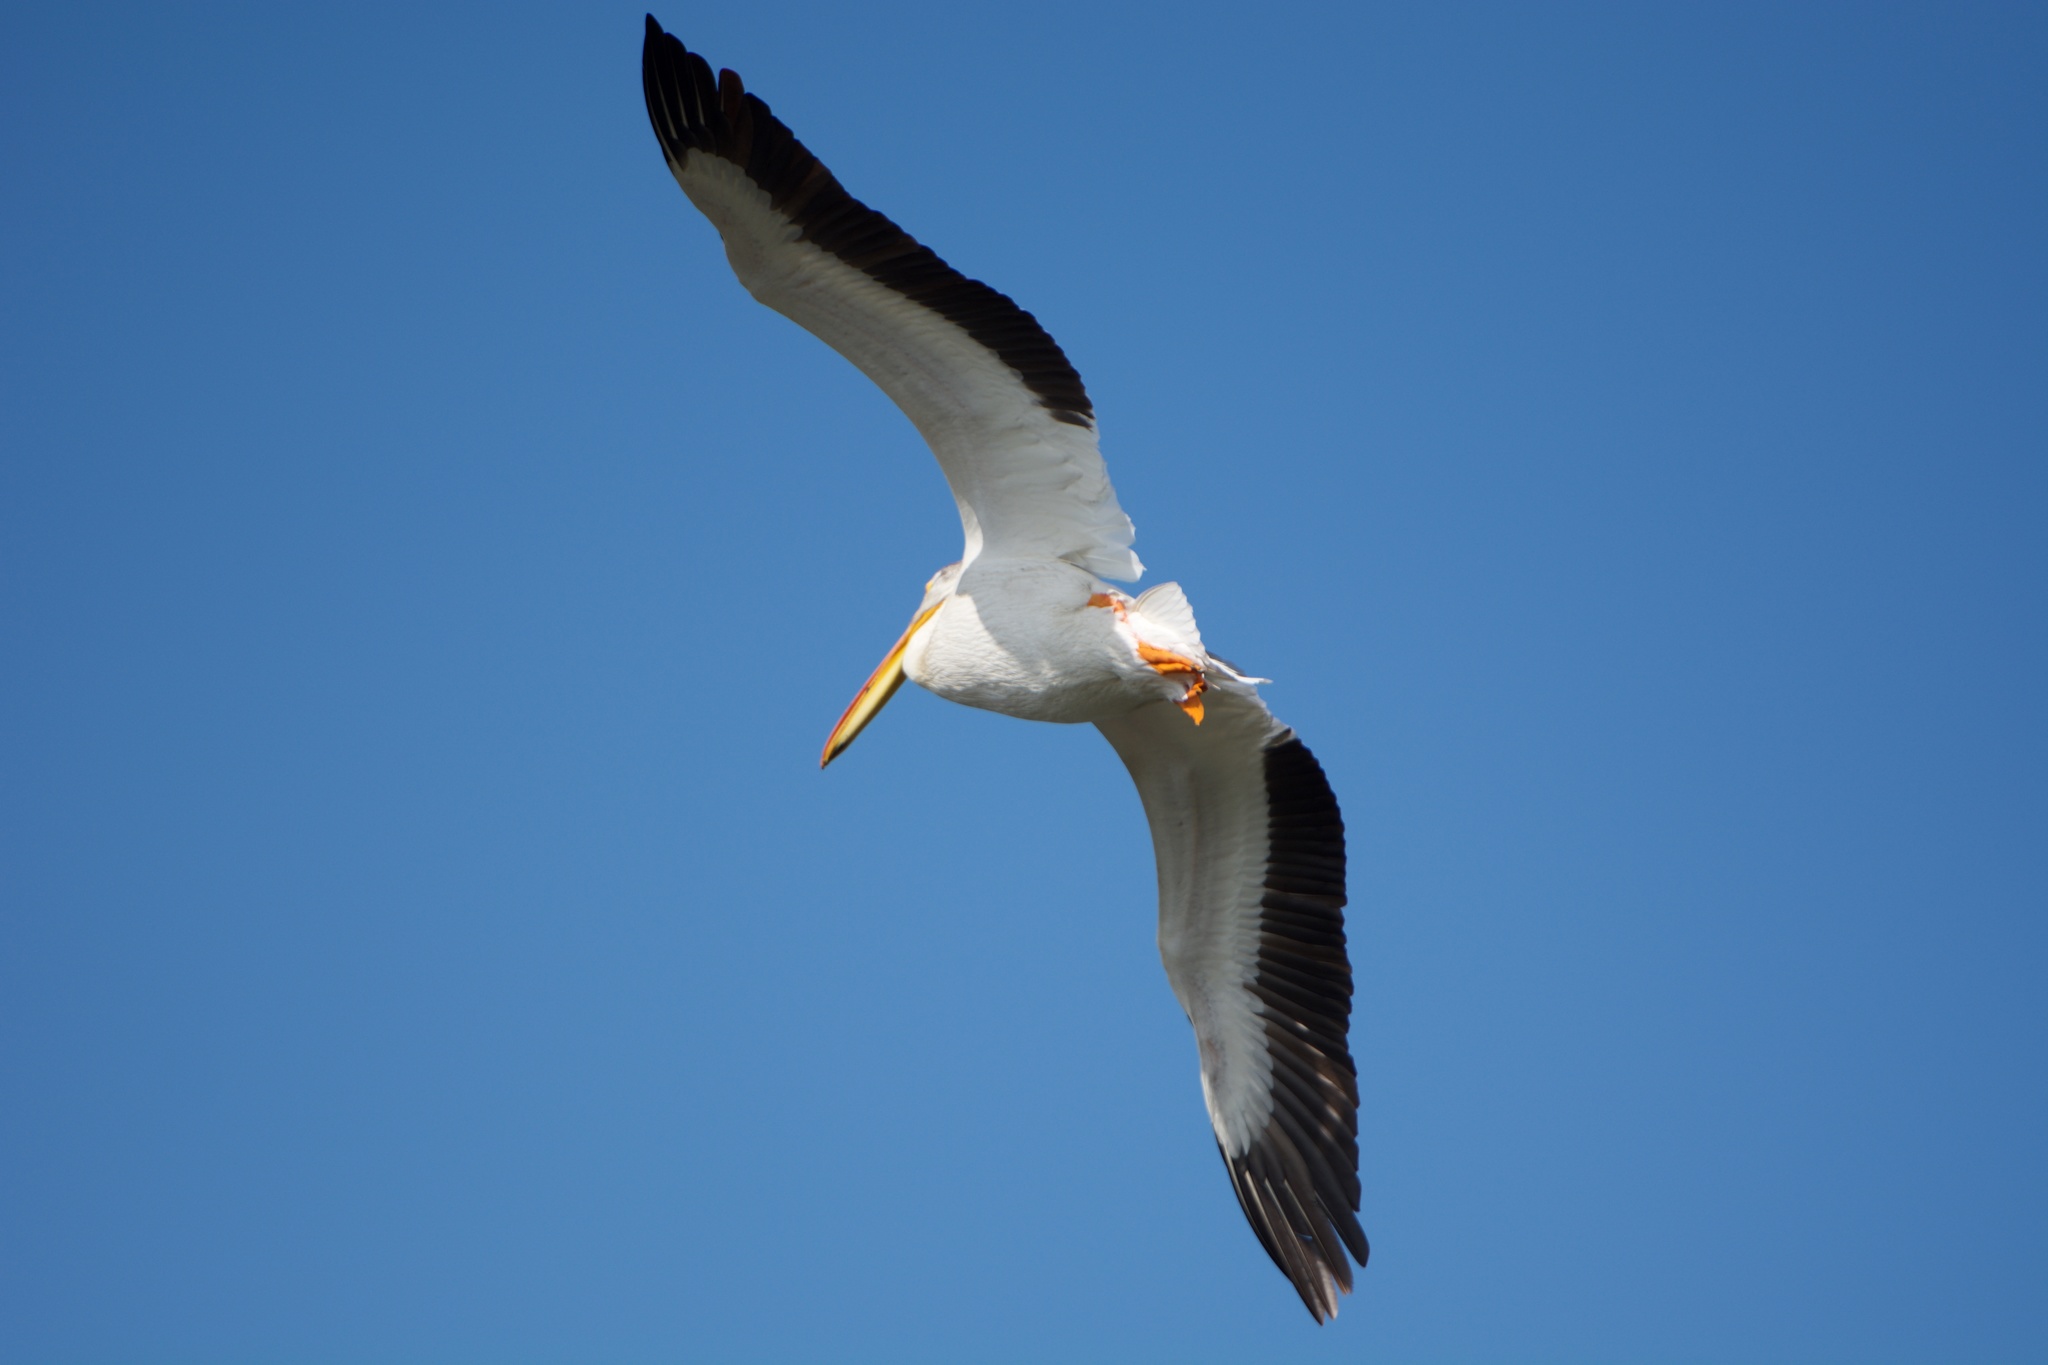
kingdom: Animalia
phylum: Chordata
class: Aves
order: Pelecaniformes
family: Pelecanidae
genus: Pelecanus
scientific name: Pelecanus erythrorhynchos
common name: American white pelican
